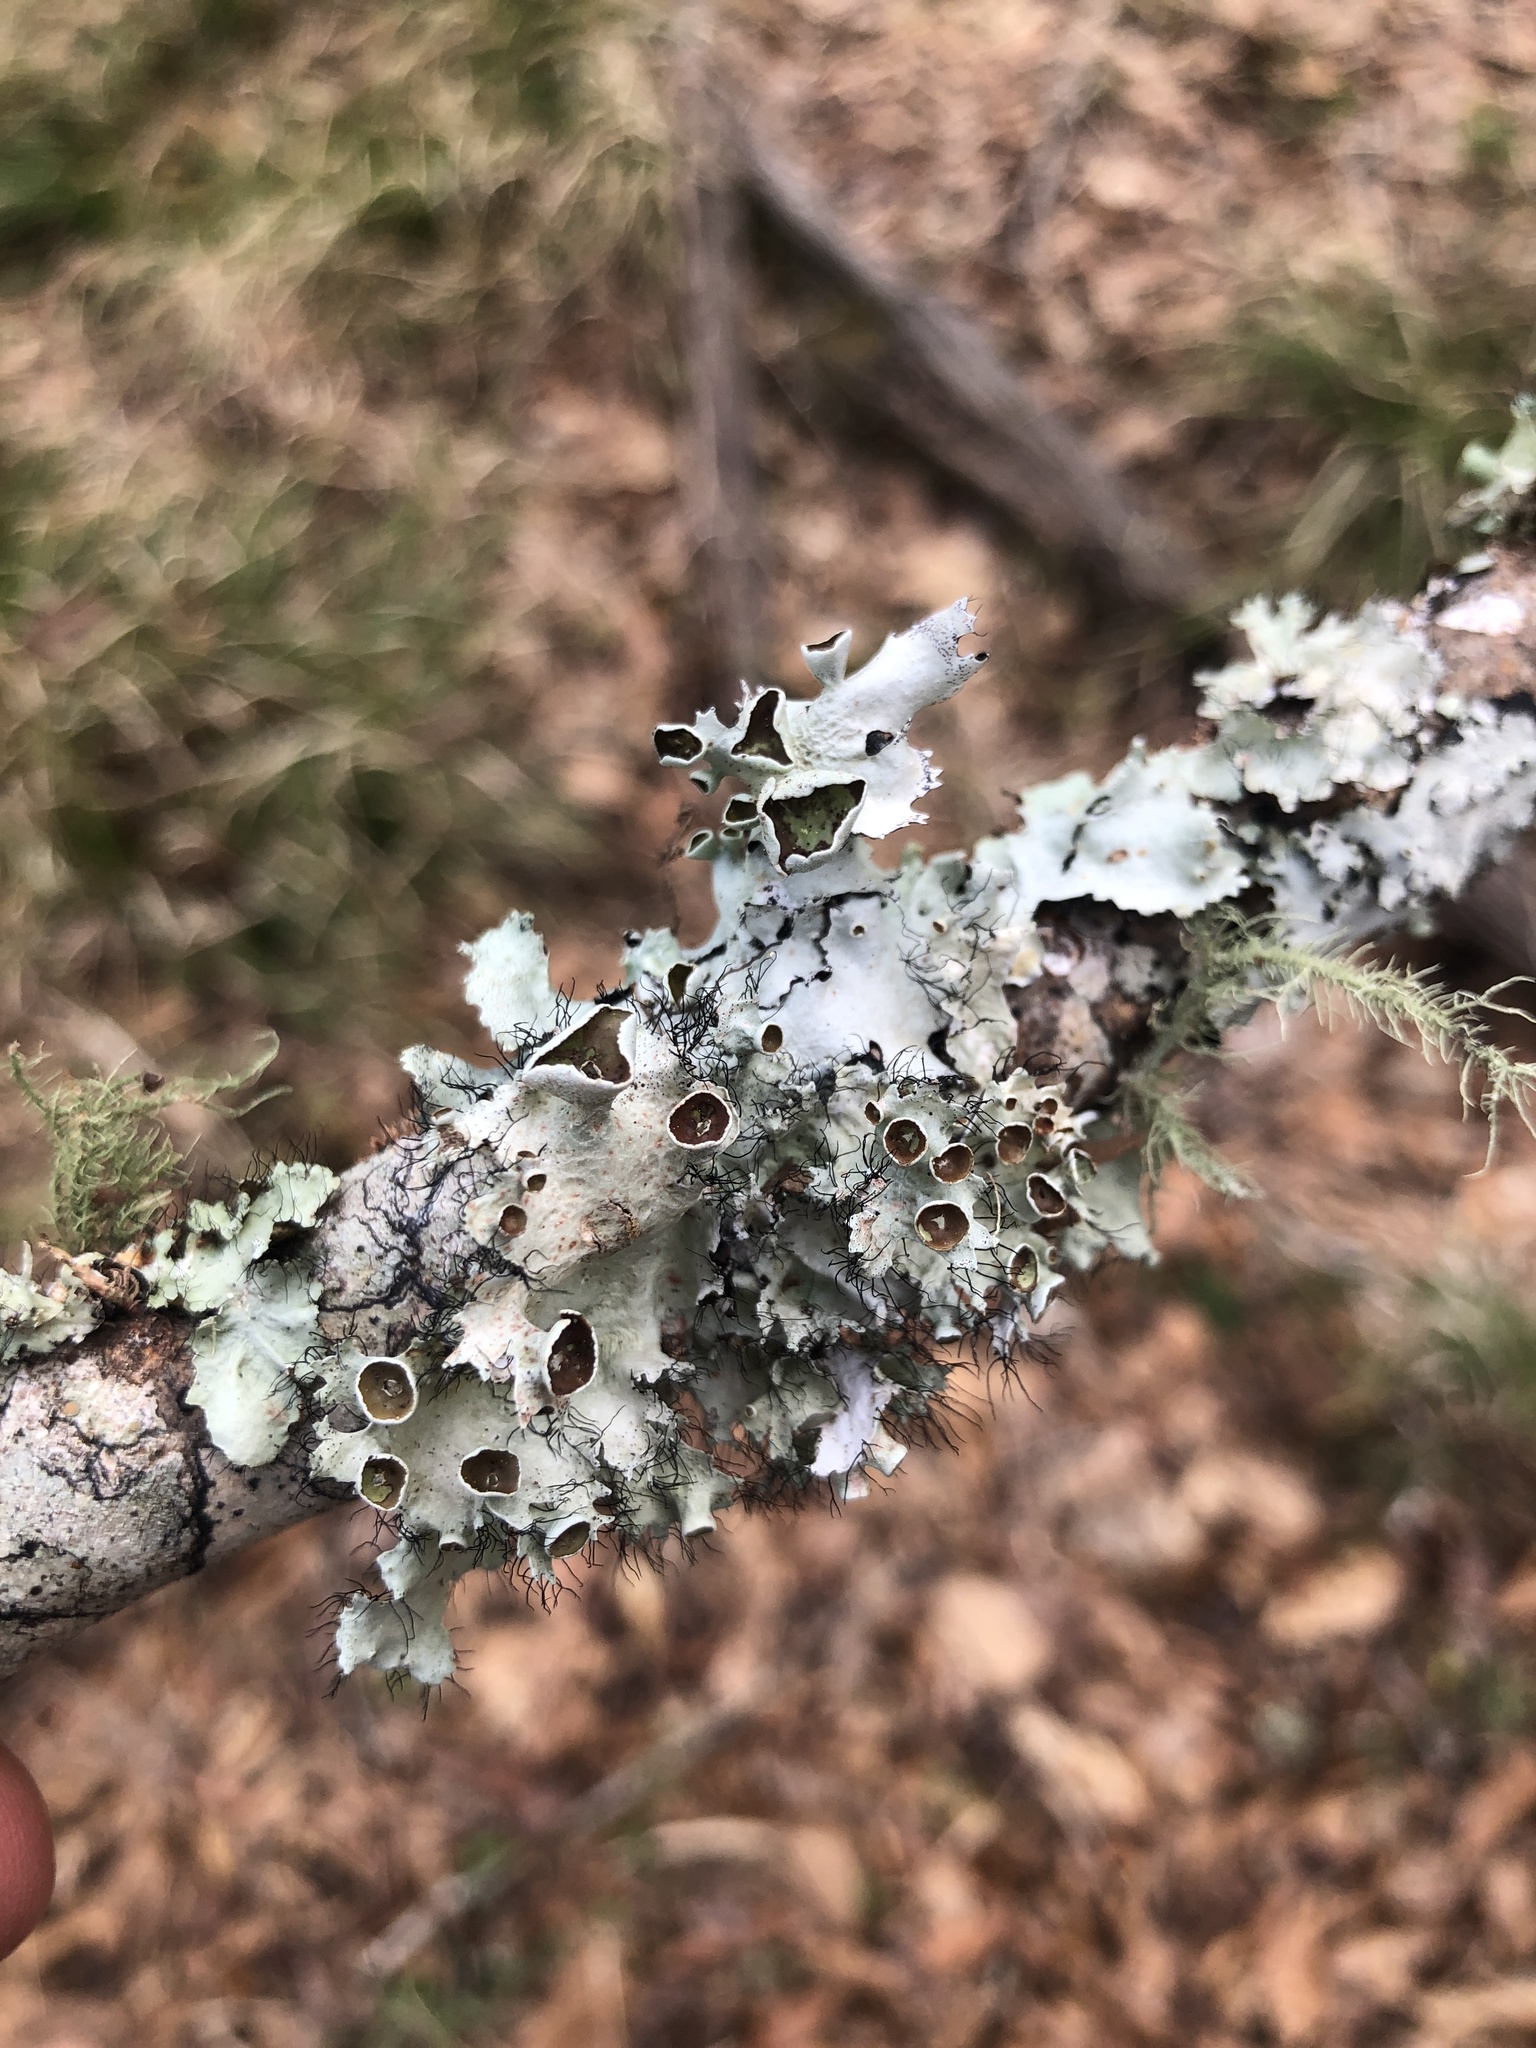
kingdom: Fungi
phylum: Ascomycota
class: Lecanoromycetes
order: Lecanorales
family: Parmeliaceae
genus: Parmotrema
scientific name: Parmotrema perforatum
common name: Perforated ruffle lichen
